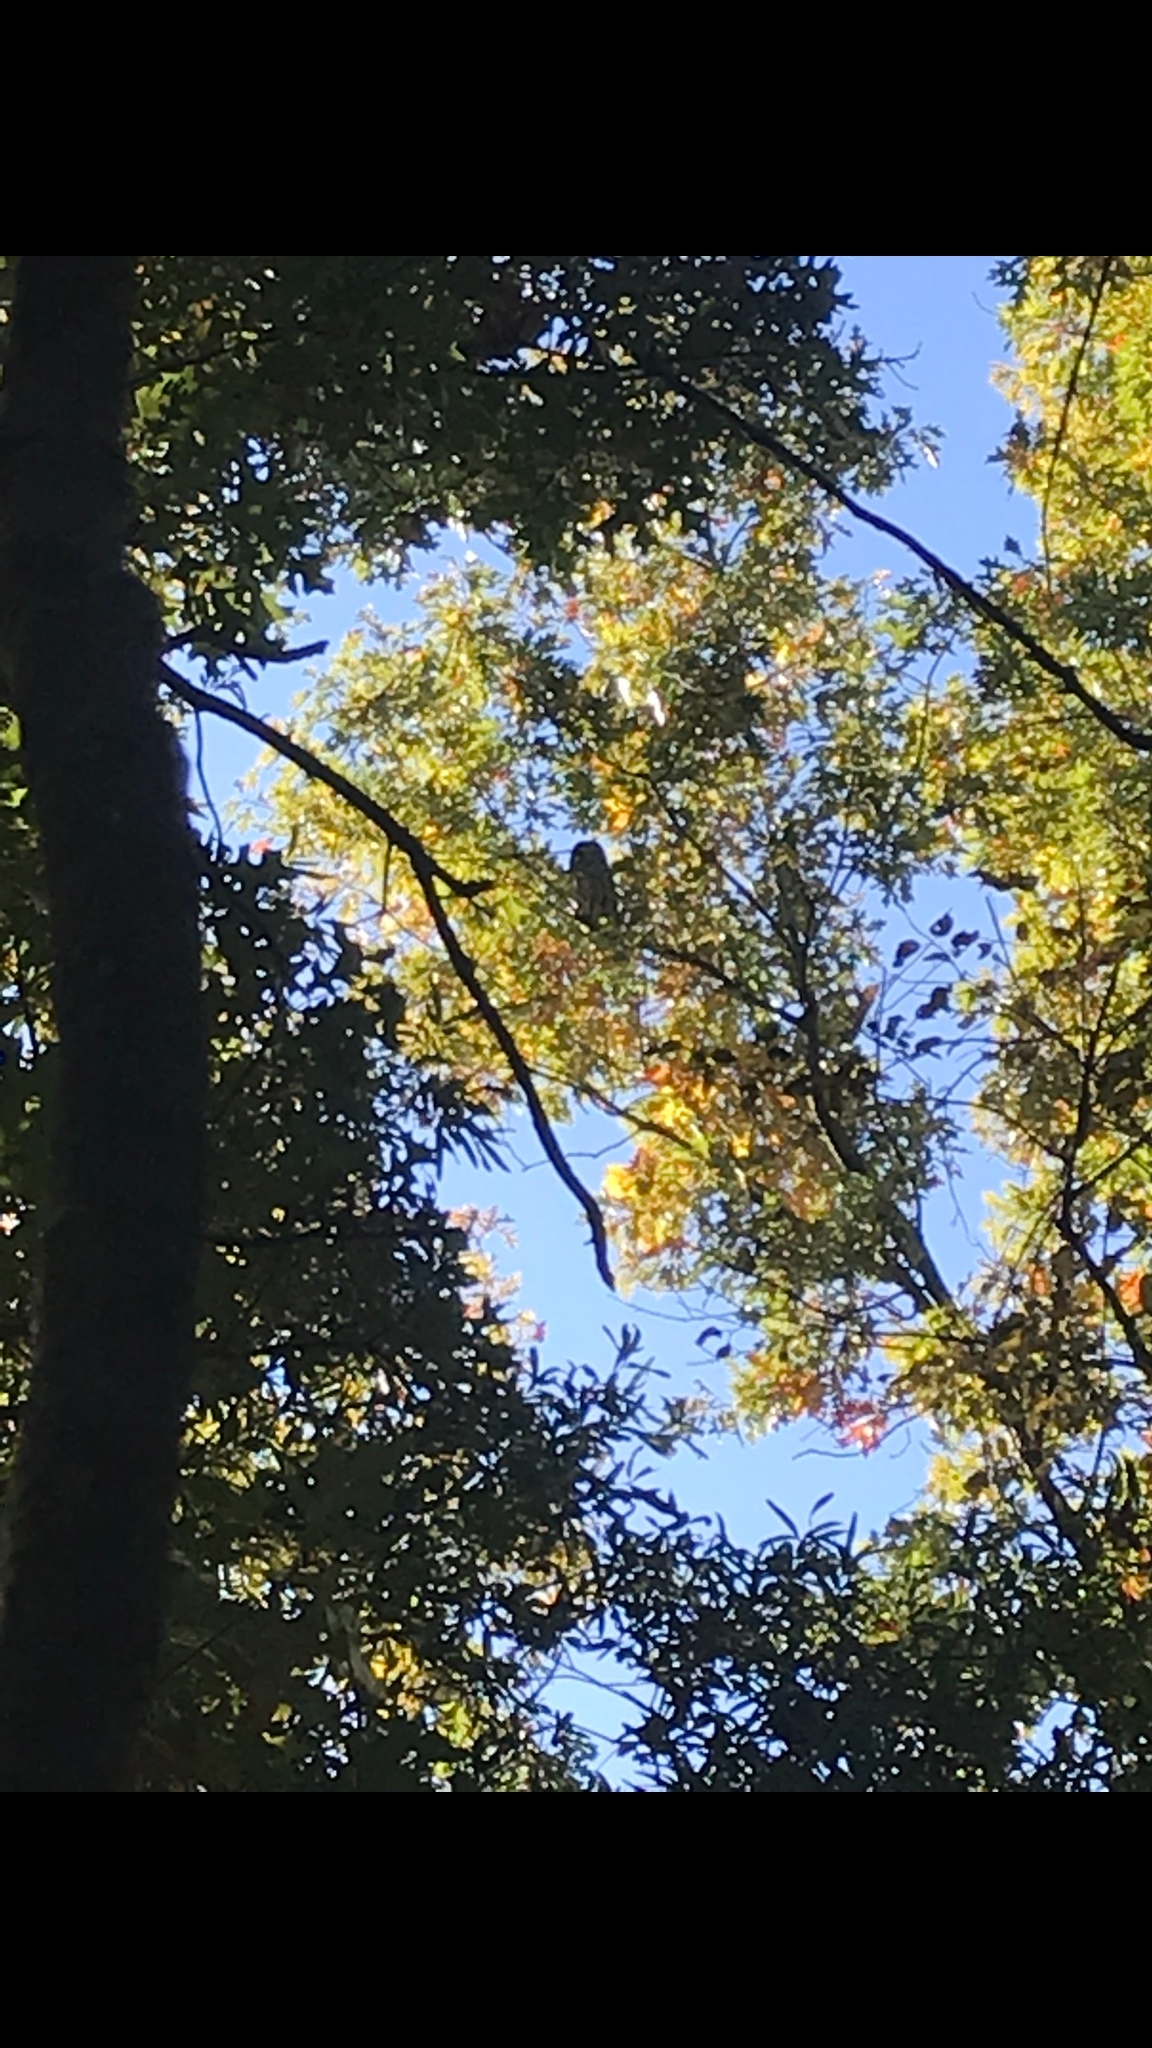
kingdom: Animalia
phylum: Chordata
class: Aves
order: Strigiformes
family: Strigidae
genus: Strix
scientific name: Strix varia
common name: Barred owl
